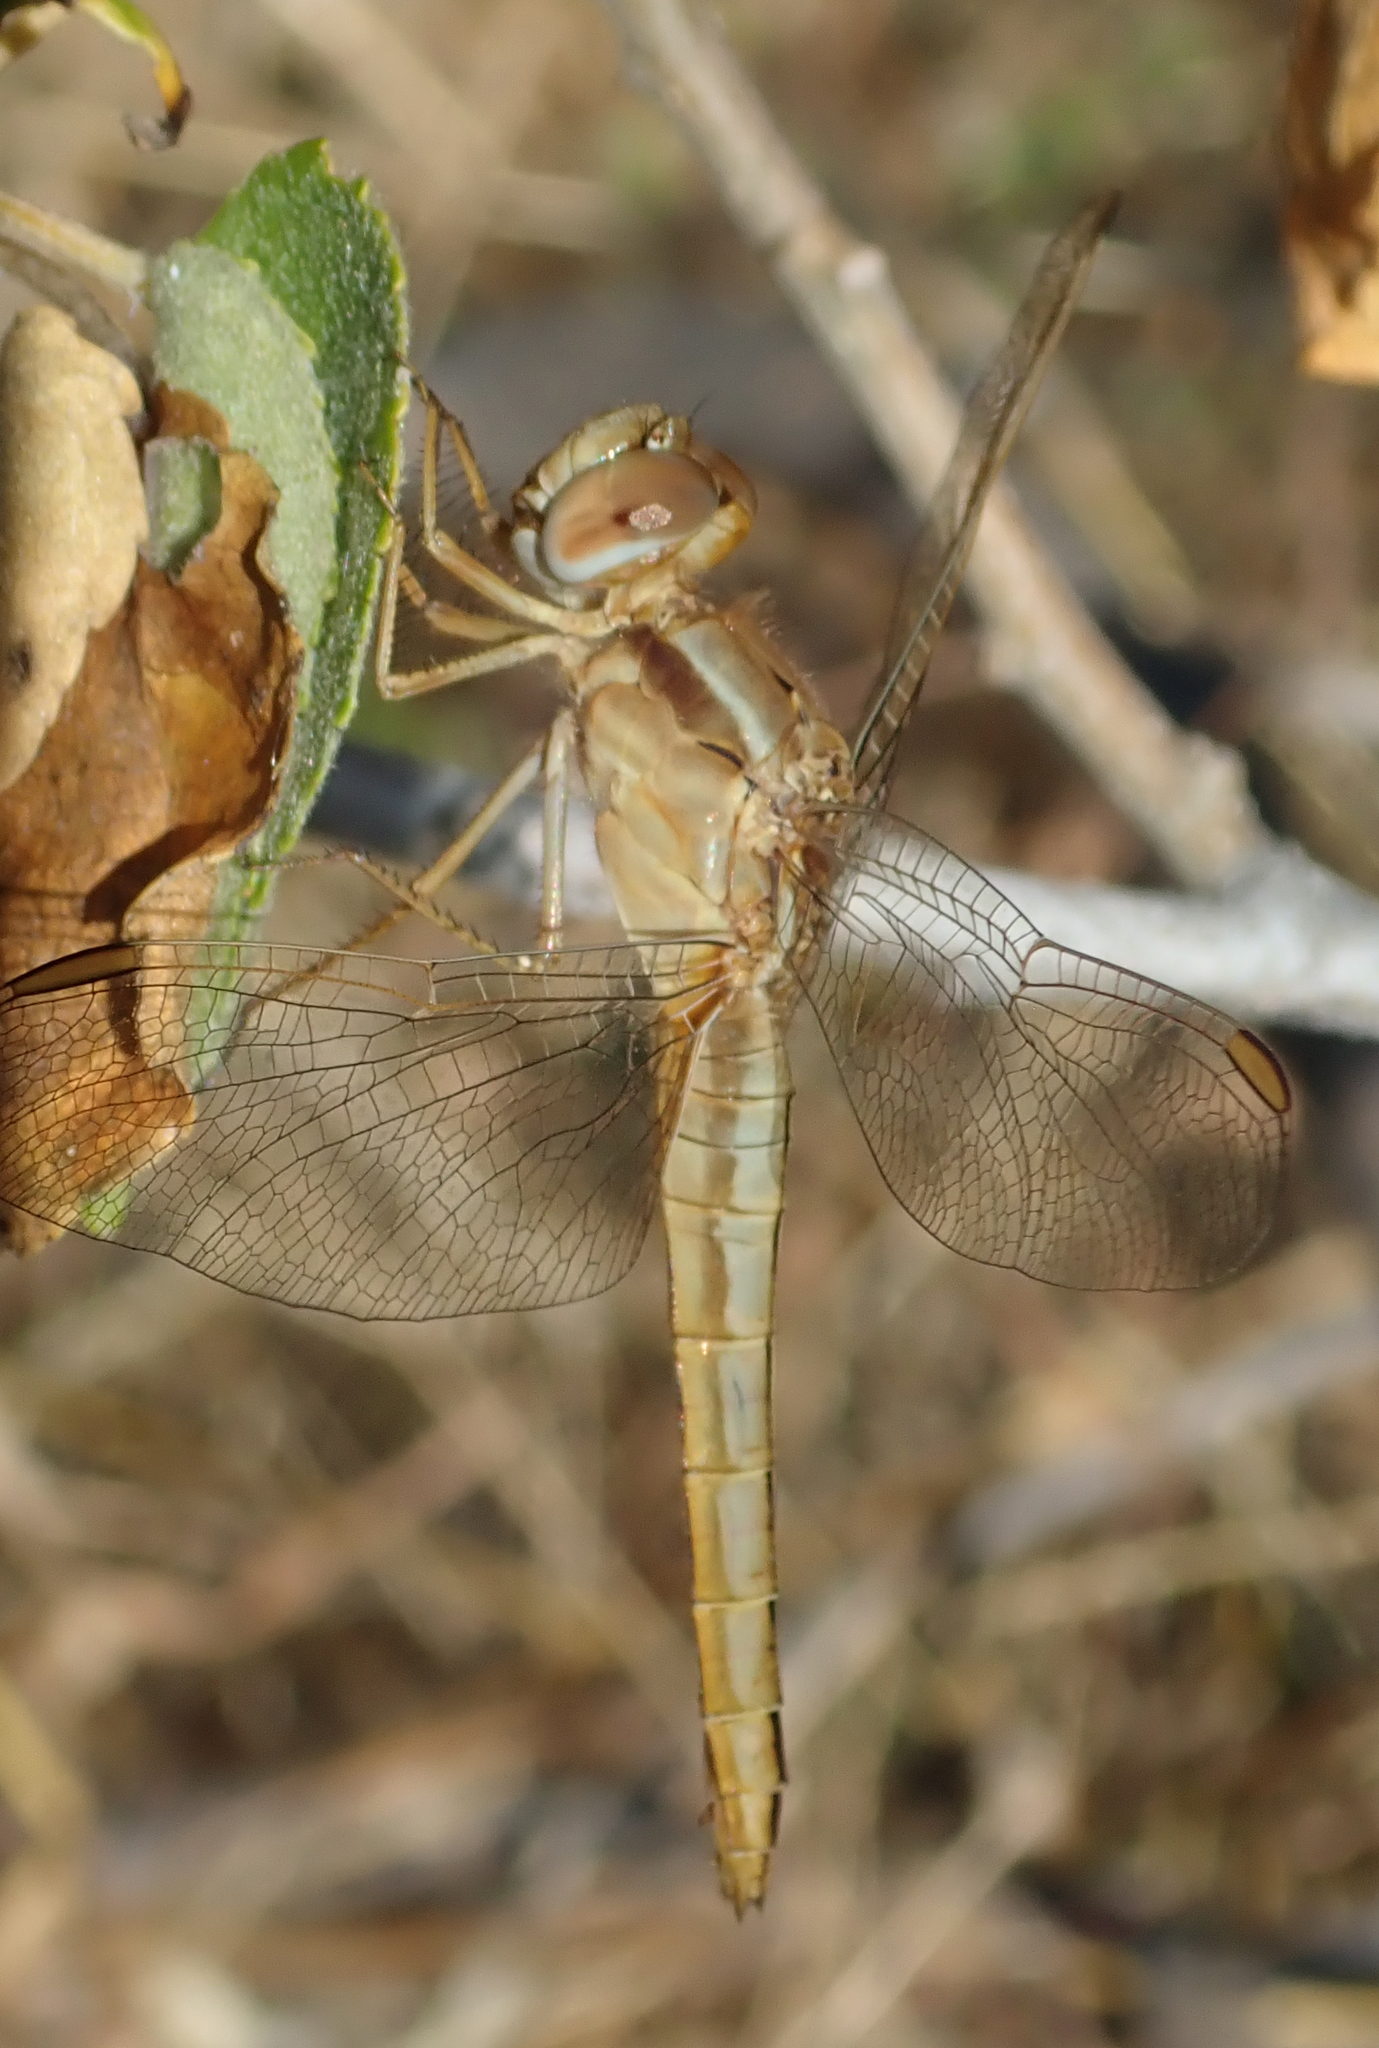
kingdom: Animalia
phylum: Arthropoda
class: Insecta
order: Odonata
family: Libellulidae
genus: Crocothemis
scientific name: Crocothemis erythraea
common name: Scarlet dragonfly
